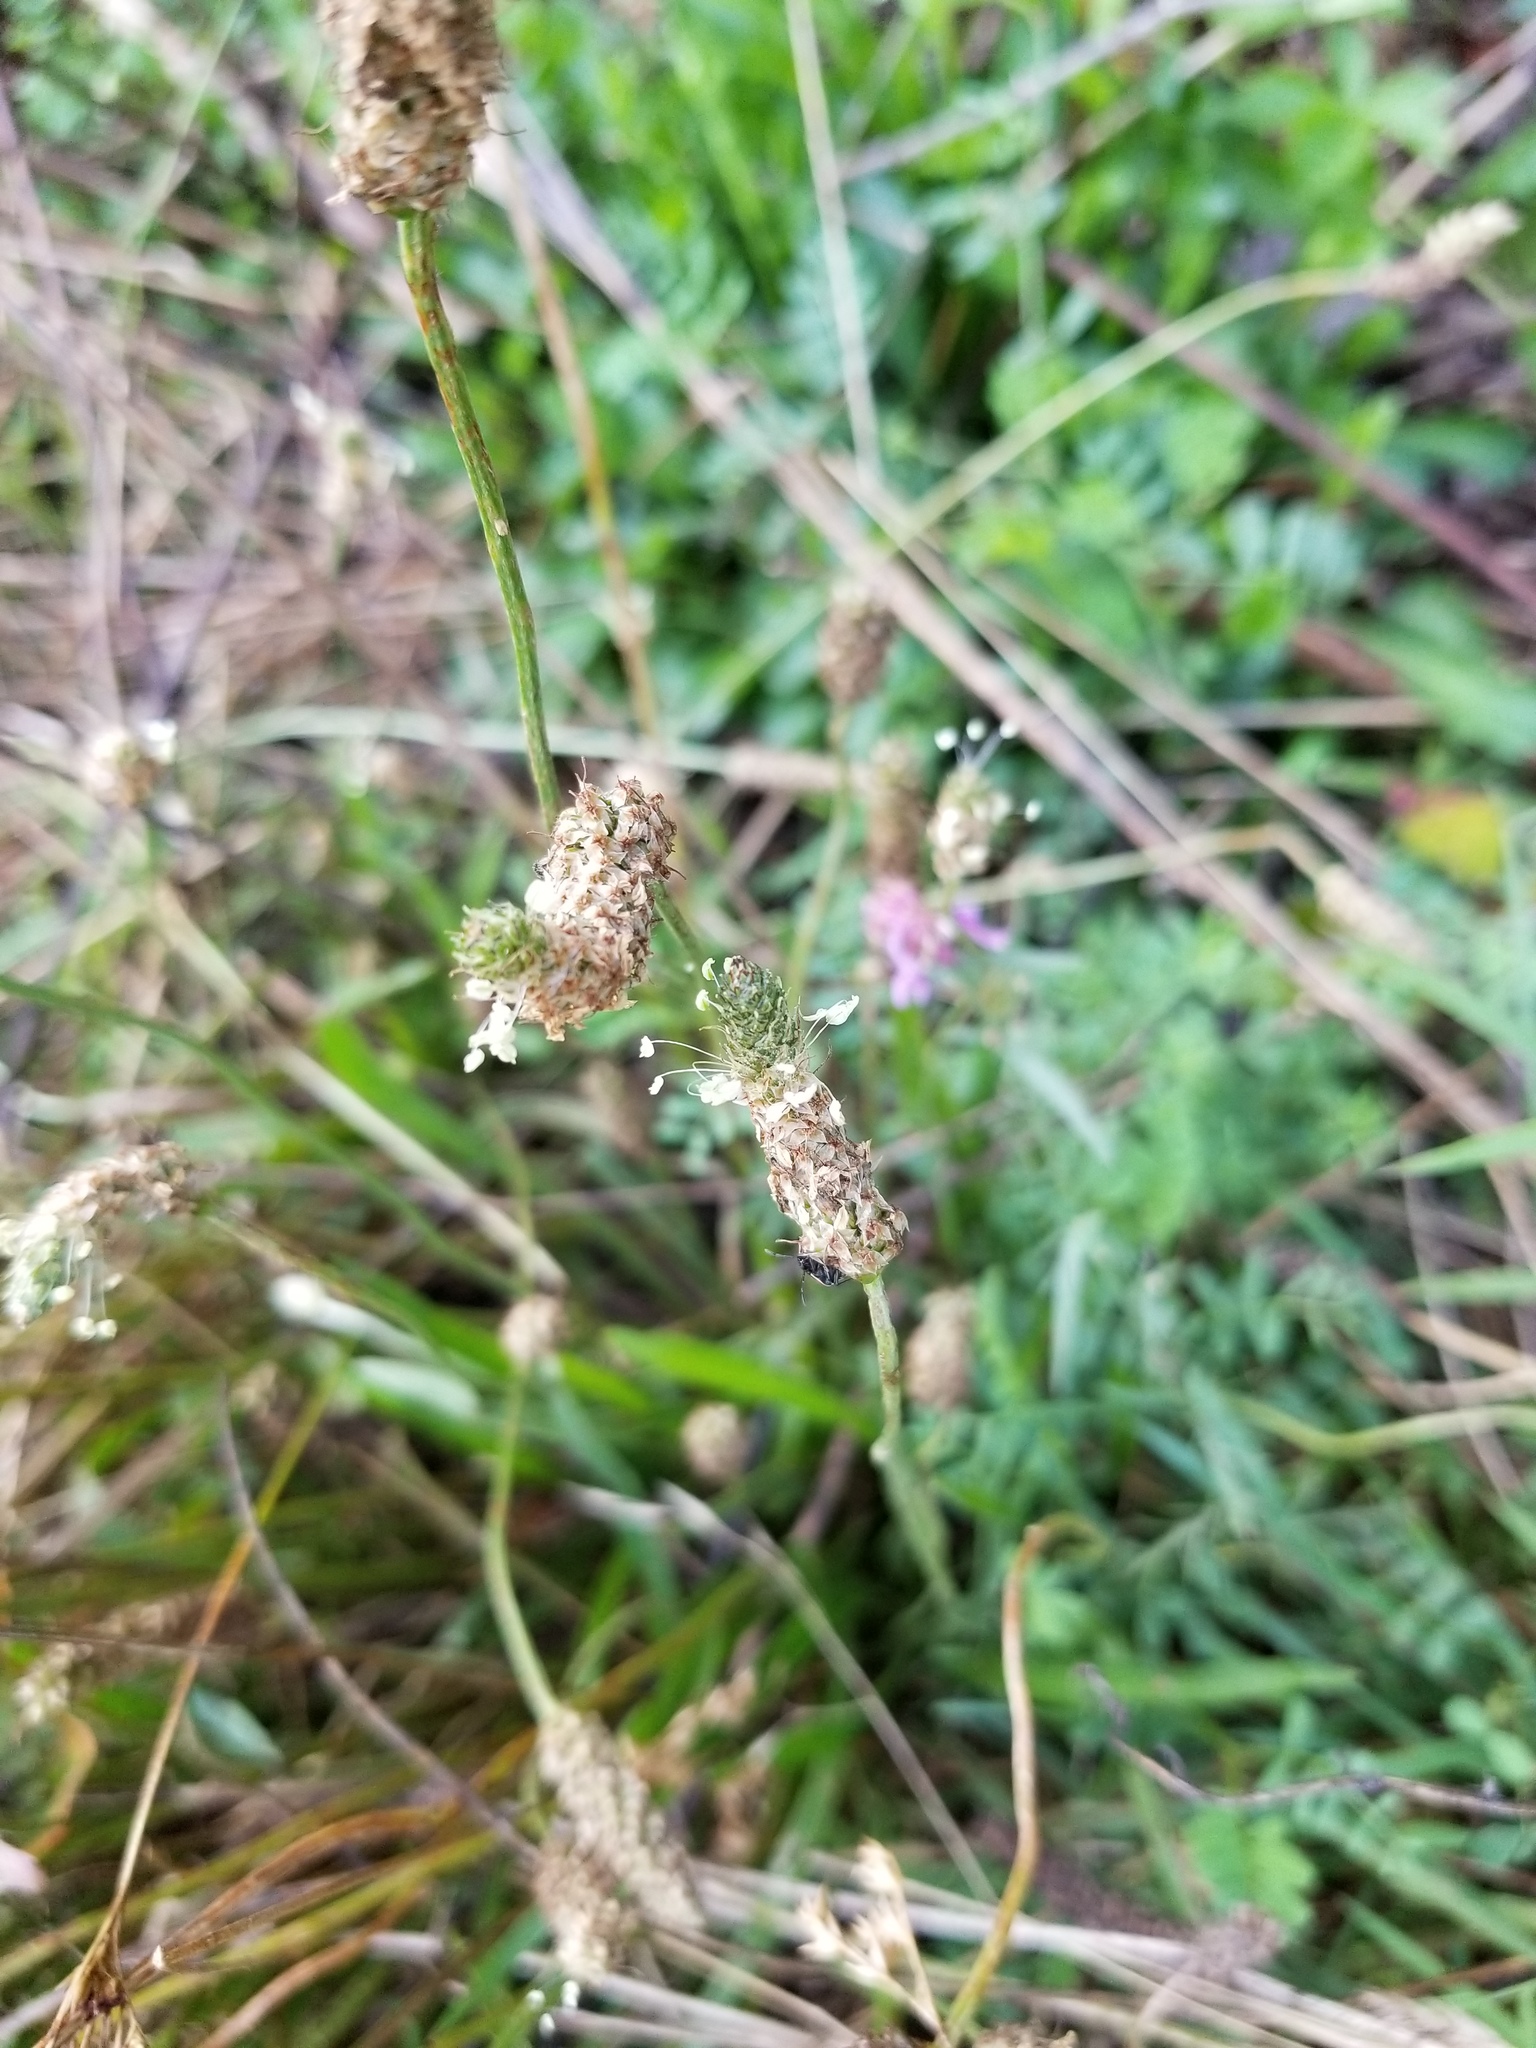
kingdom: Plantae
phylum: Tracheophyta
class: Magnoliopsida
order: Lamiales
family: Plantaginaceae
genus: Plantago
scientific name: Plantago lanceolata
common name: Ribwort plantain
